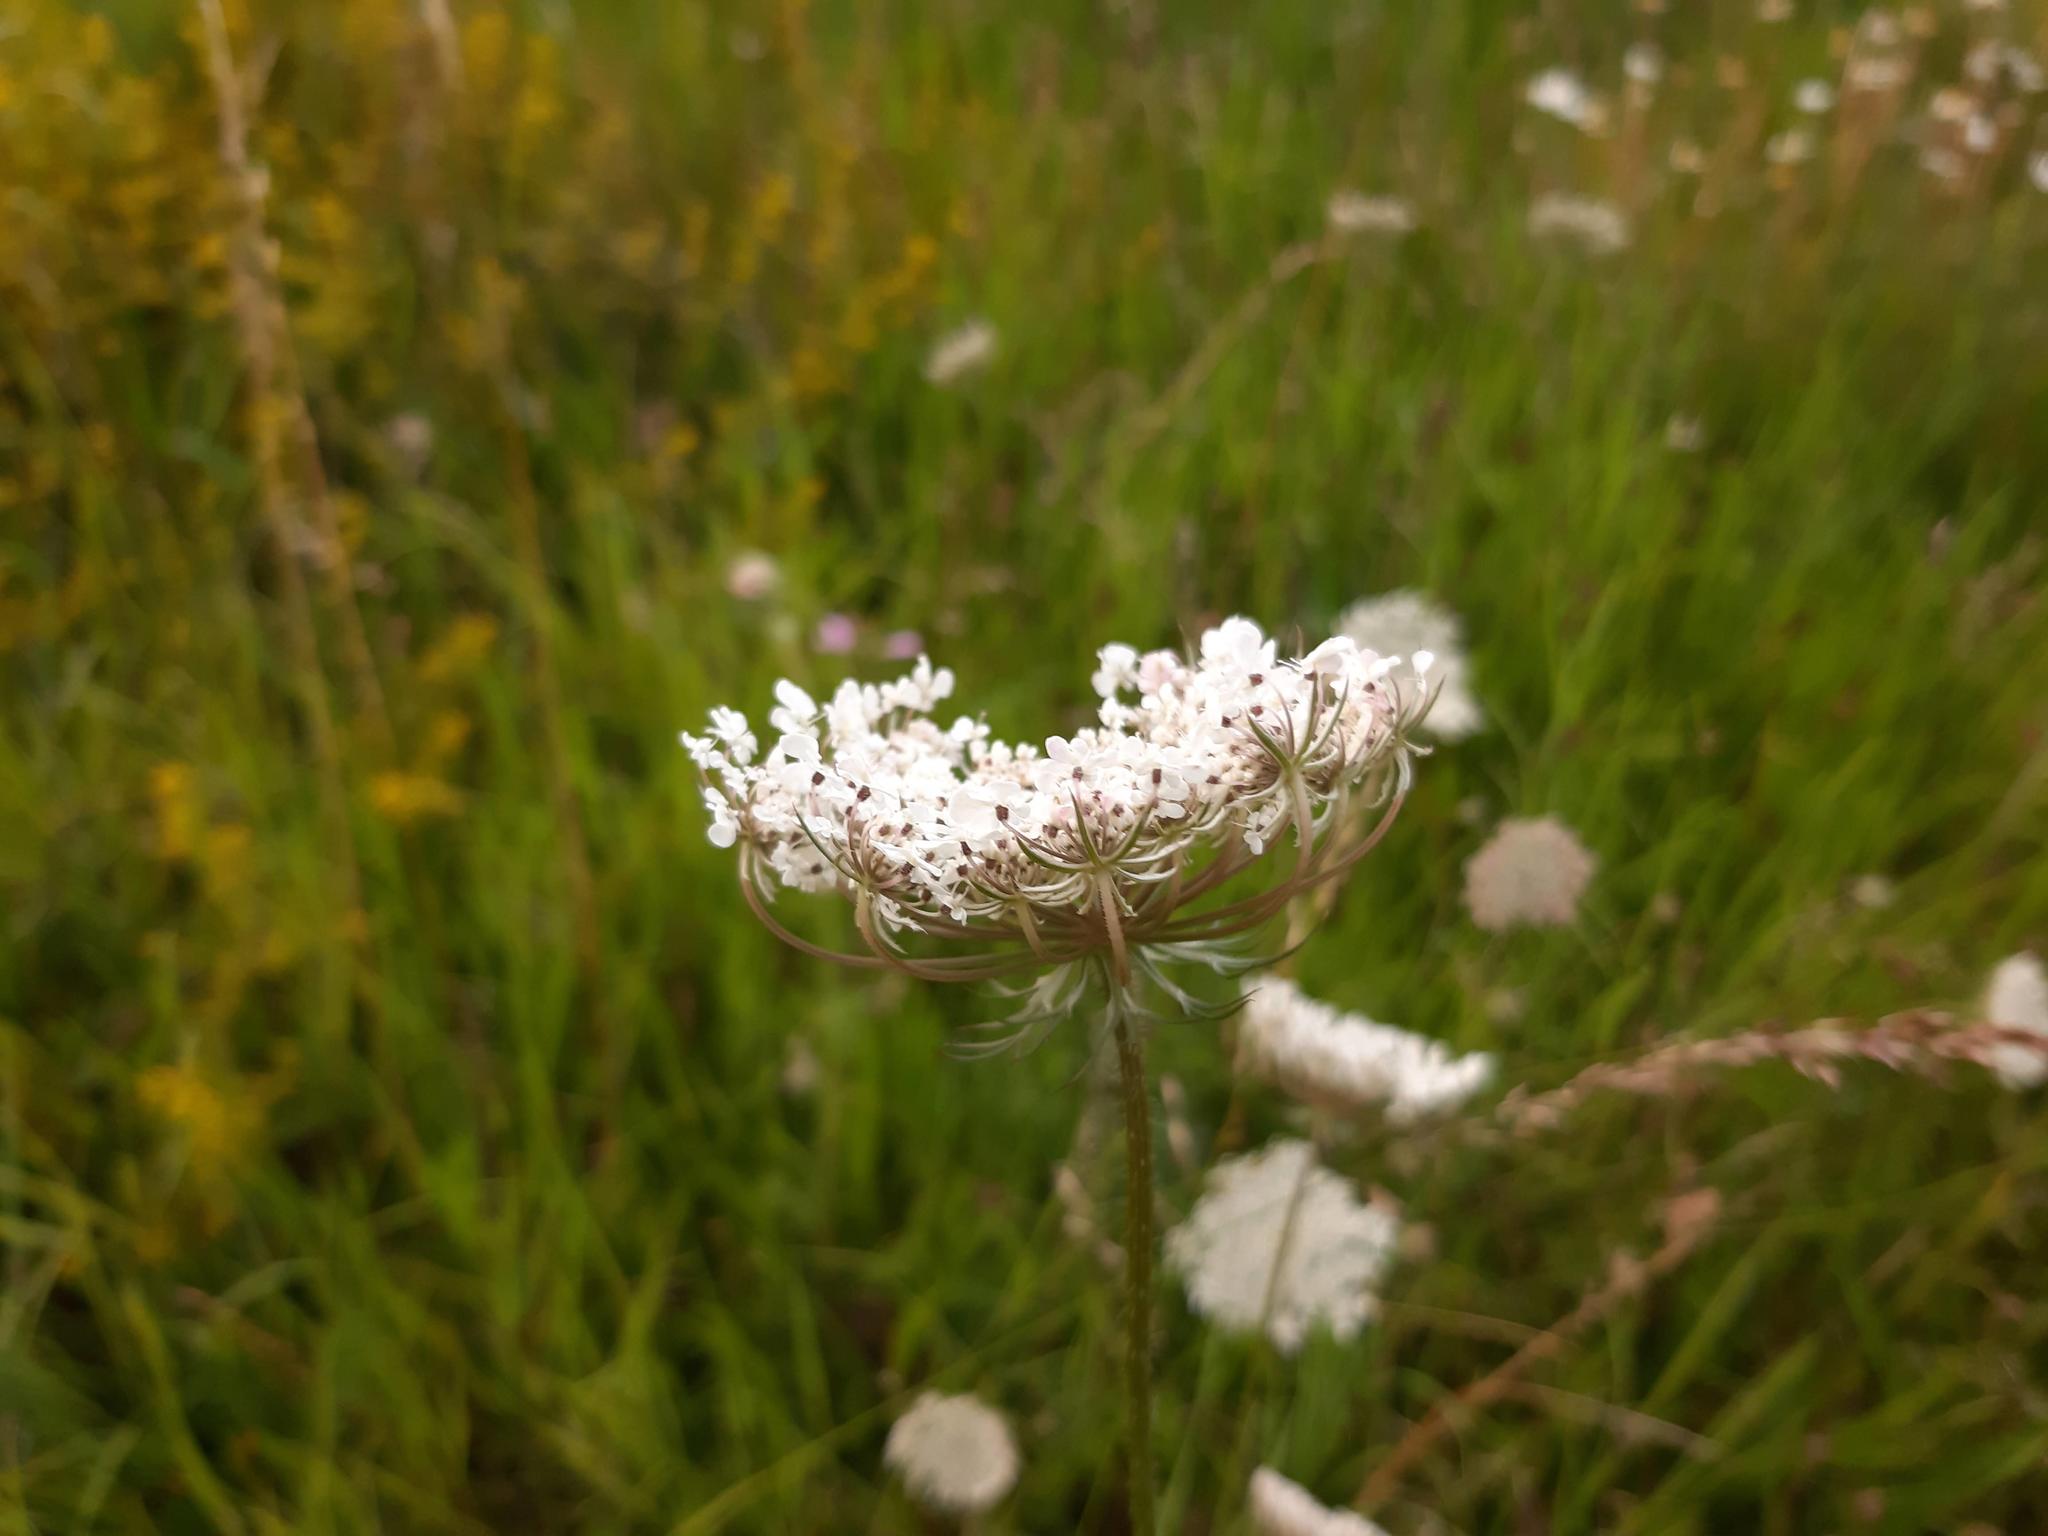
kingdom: Plantae
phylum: Tracheophyta
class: Magnoliopsida
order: Apiales
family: Apiaceae
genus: Daucus
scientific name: Daucus carota
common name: Wild carrot
